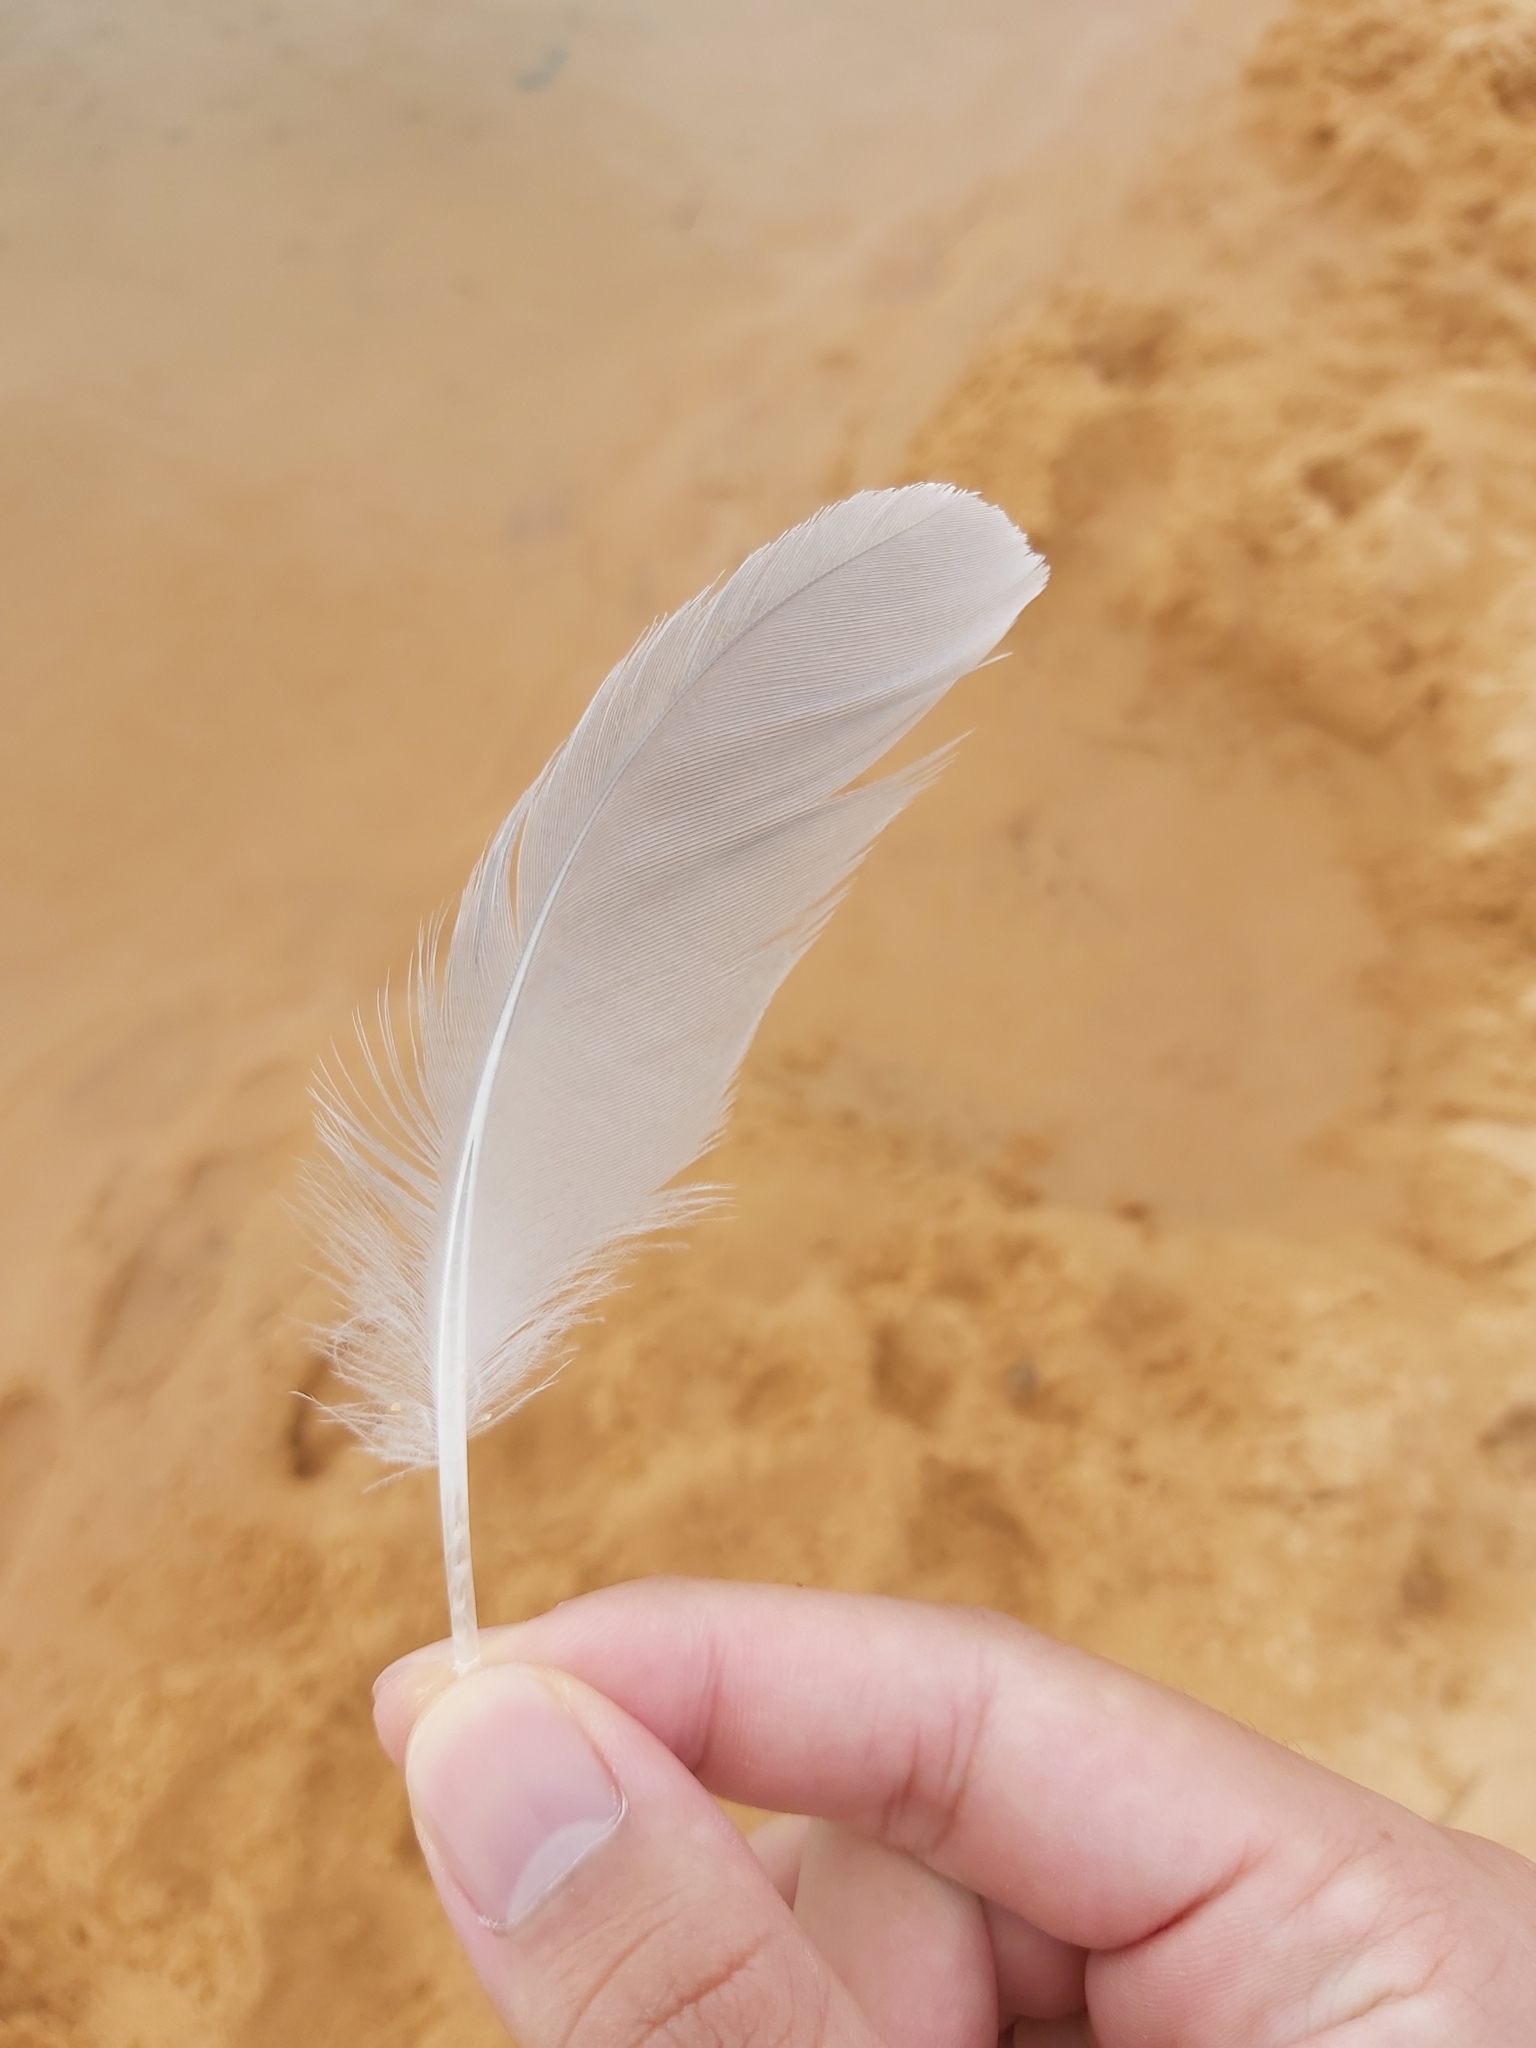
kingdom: Animalia
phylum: Chordata
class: Aves
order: Charadriiformes
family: Laridae
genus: Chroicocephalus
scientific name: Chroicocephalus novaehollandiae
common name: Silver gull
